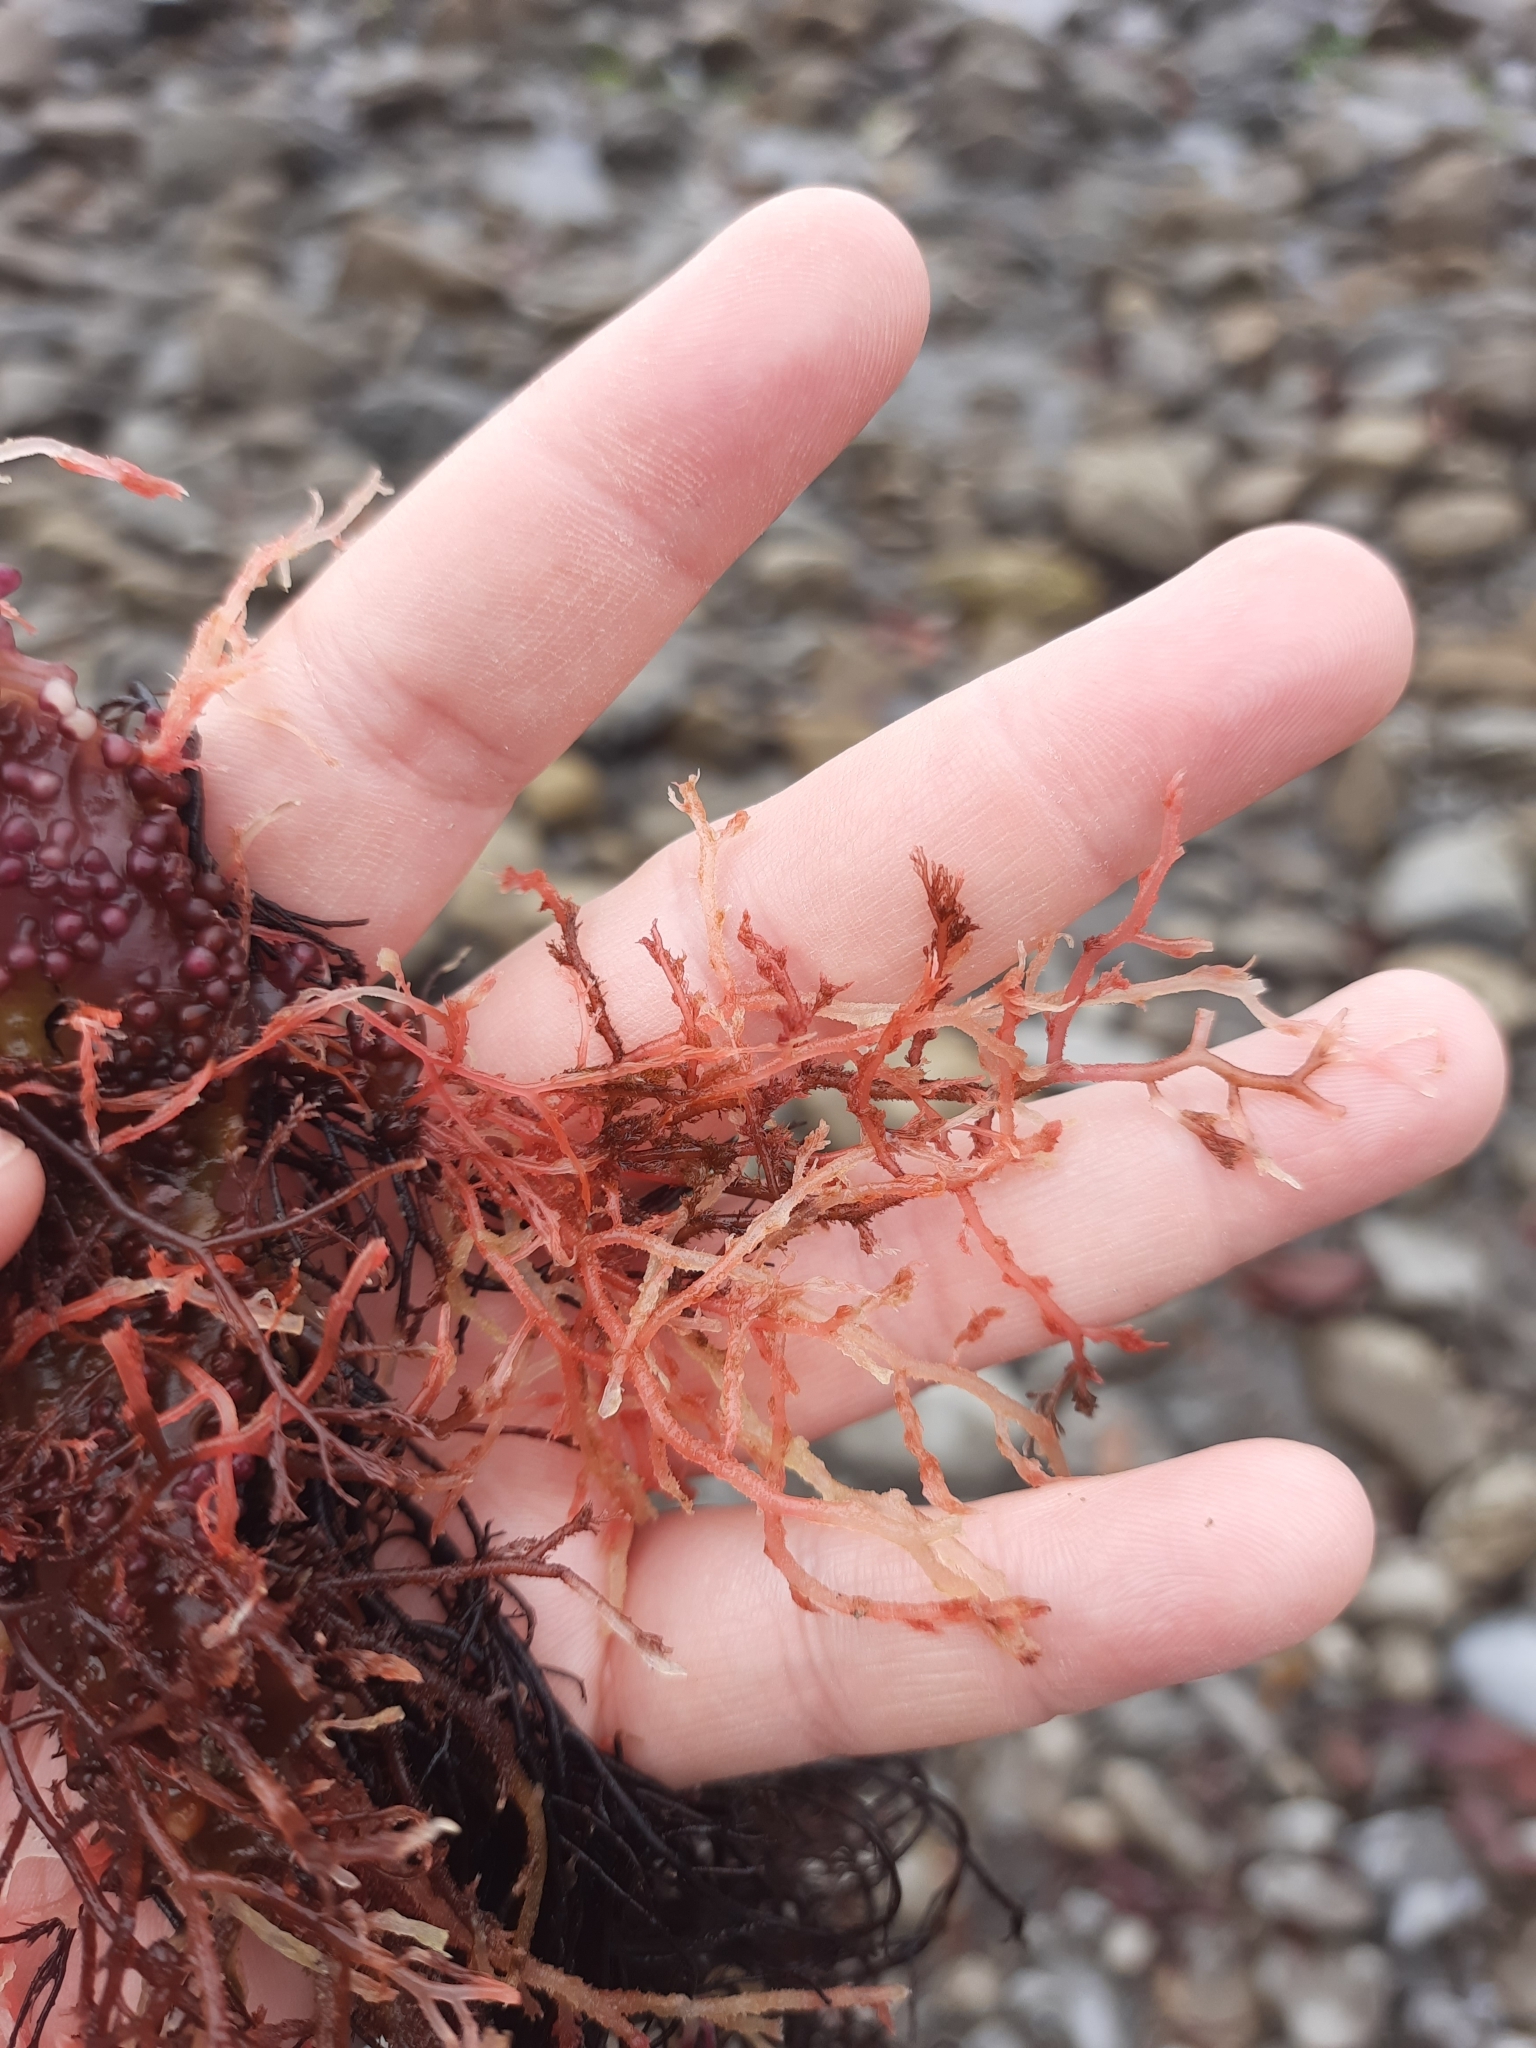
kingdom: Plantae
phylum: Rhodophyta
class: Florideophyceae
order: Ceramiales
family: Rhodomelaceae
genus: Streblocladia
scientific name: Streblocladia glomerulata
